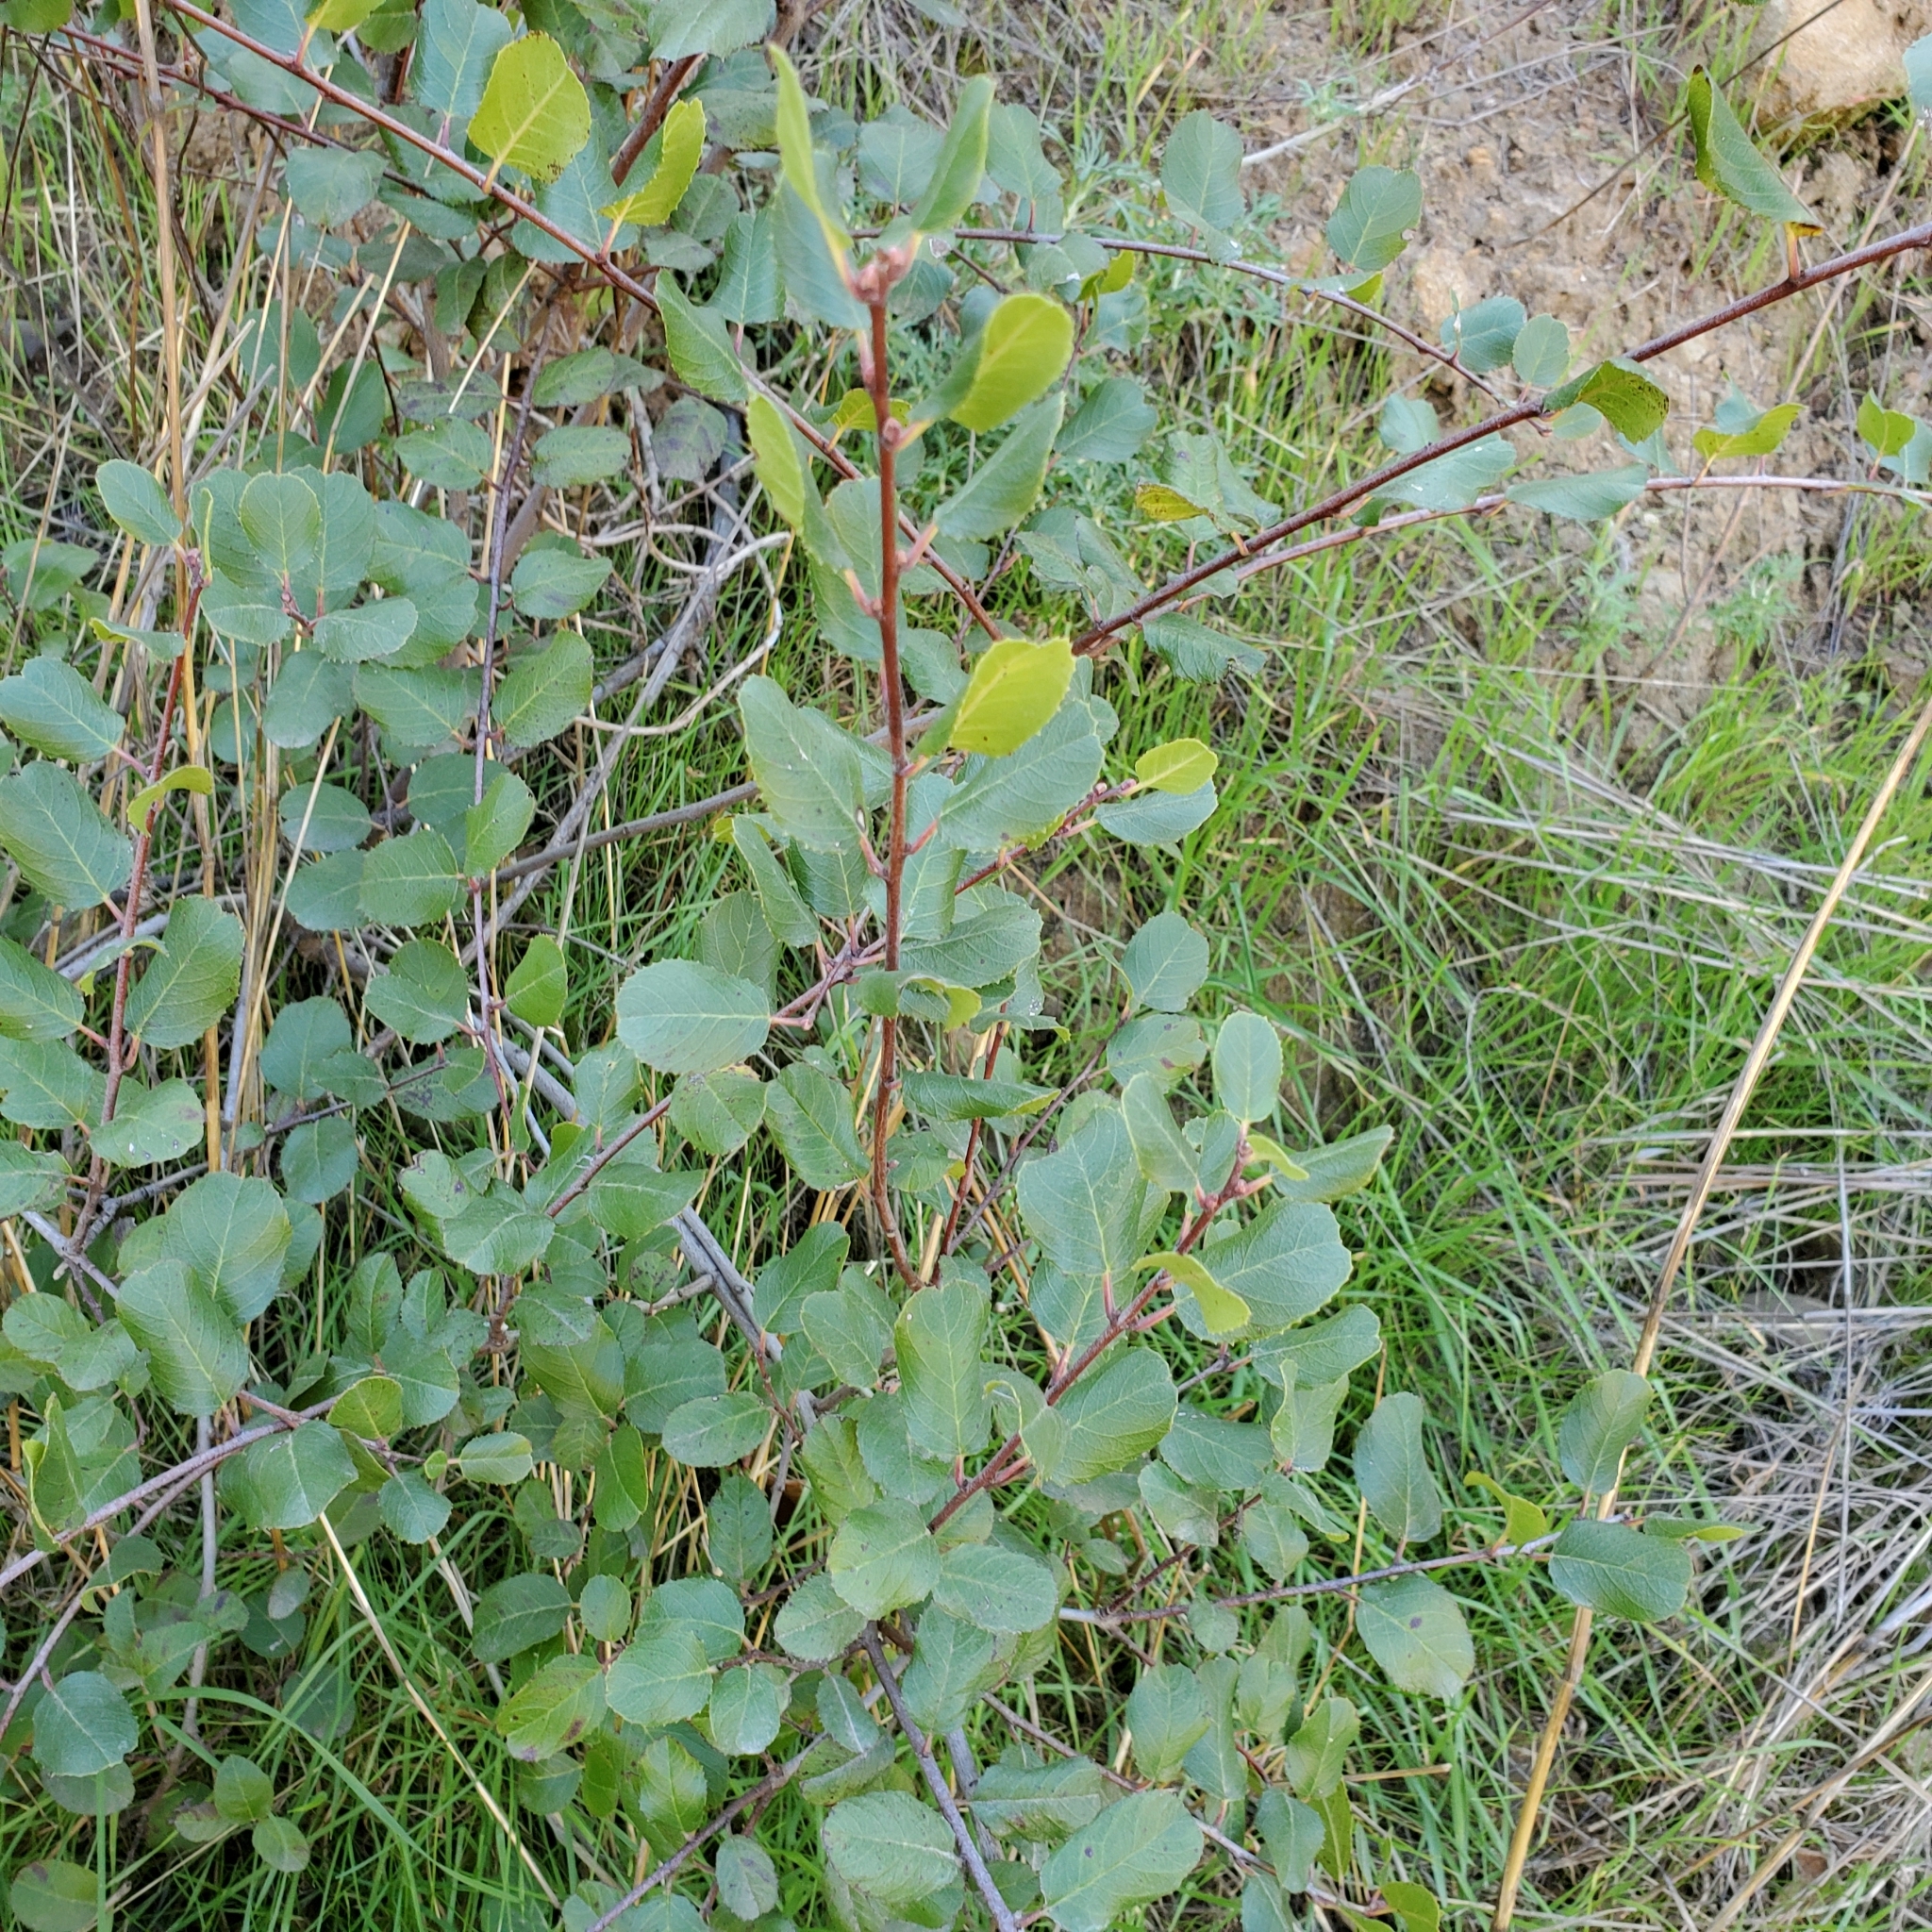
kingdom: Plantae
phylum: Tracheophyta
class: Magnoliopsida
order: Rosales
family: Rhamnaceae
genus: Endotropis
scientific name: Endotropis crocea
